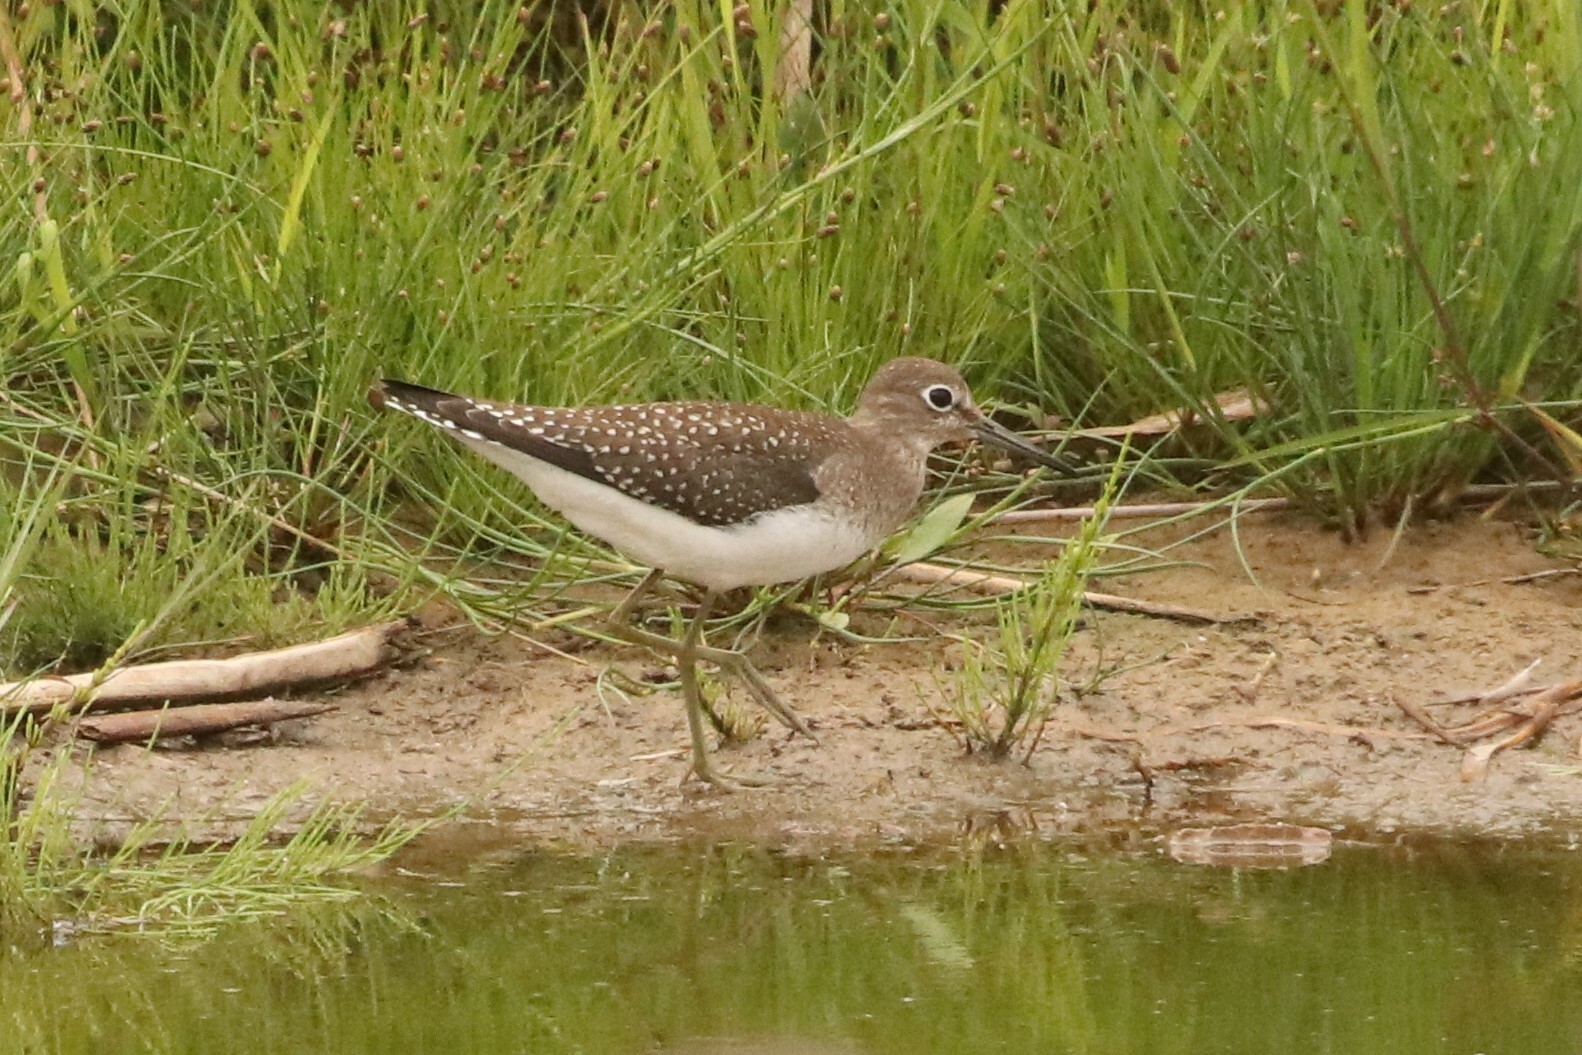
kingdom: Animalia
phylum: Chordata
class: Aves
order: Charadriiformes
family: Scolopacidae
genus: Tringa
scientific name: Tringa solitaria
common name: Solitary sandpiper
